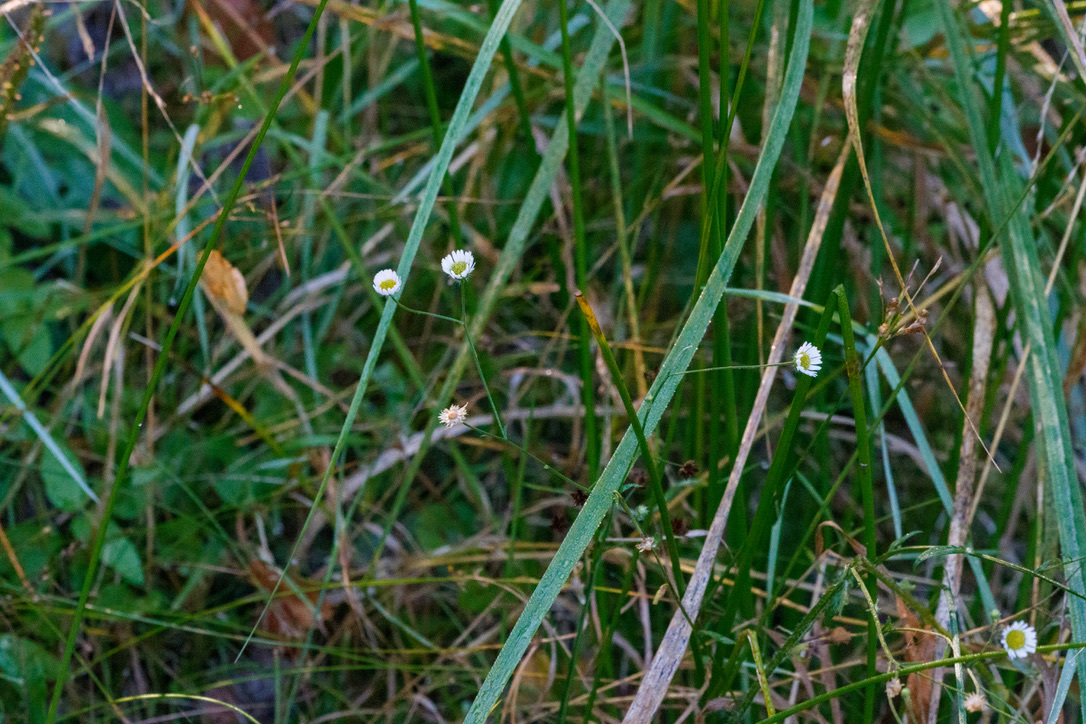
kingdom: Plantae
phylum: Tracheophyta
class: Magnoliopsida
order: Asterales
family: Asteraceae
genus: Erigeron
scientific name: Erigeron annuus
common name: Tall fleabane
